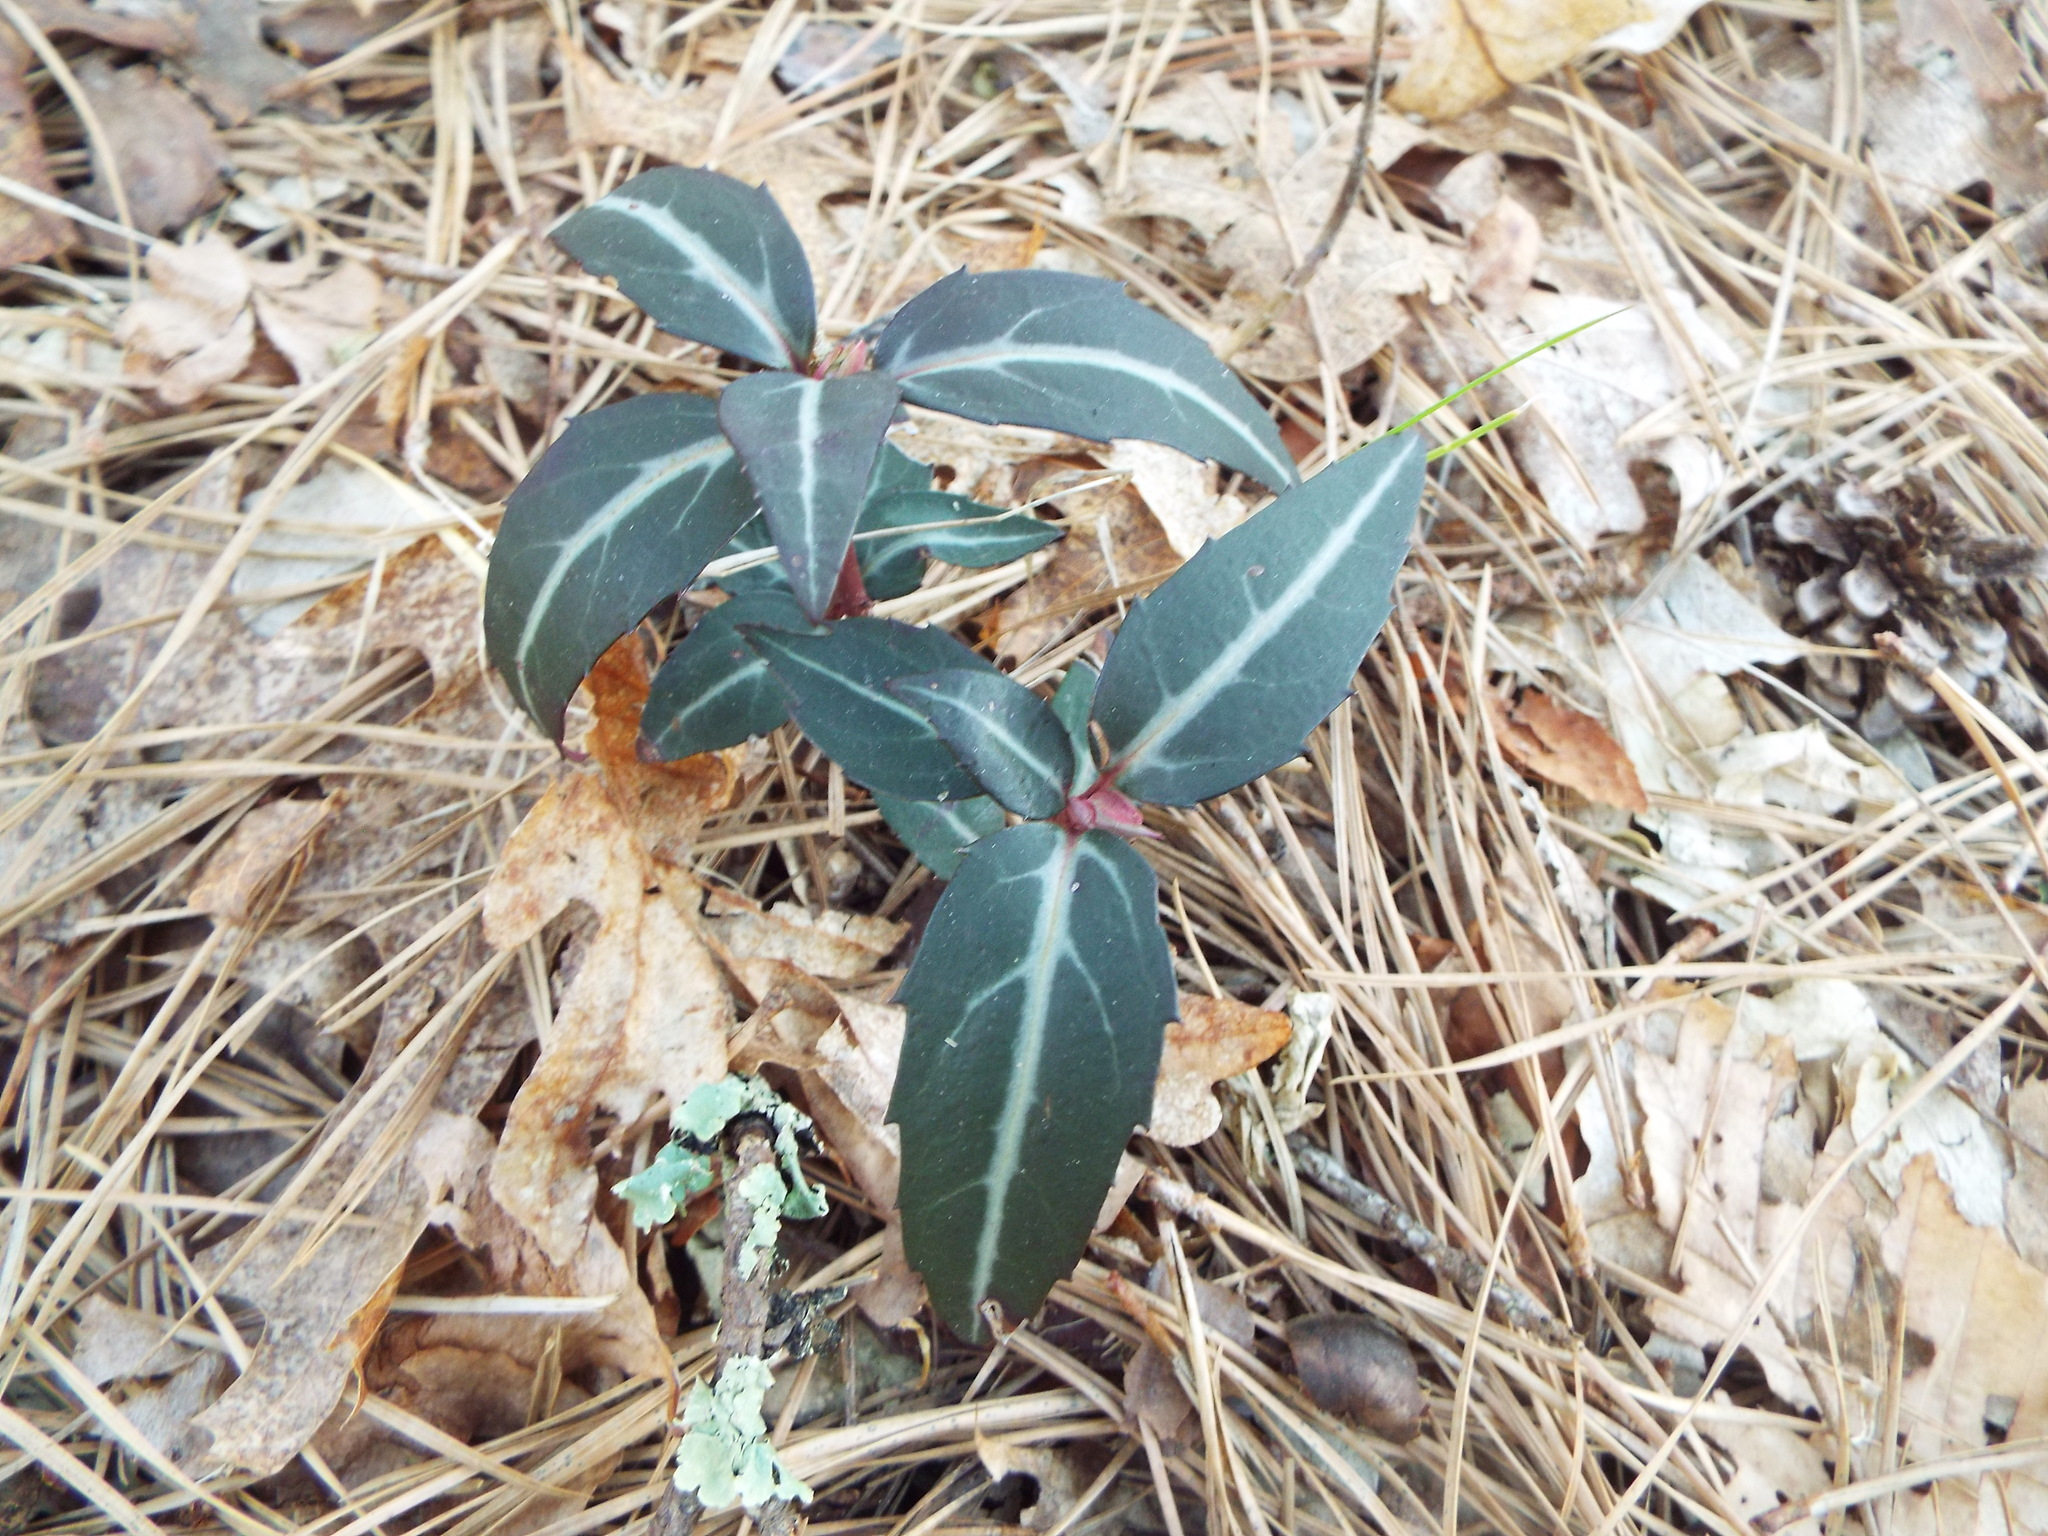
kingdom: Plantae
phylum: Tracheophyta
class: Magnoliopsida
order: Ericales
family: Ericaceae
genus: Chimaphila
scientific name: Chimaphila maculata
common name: Spotted pipsissewa
